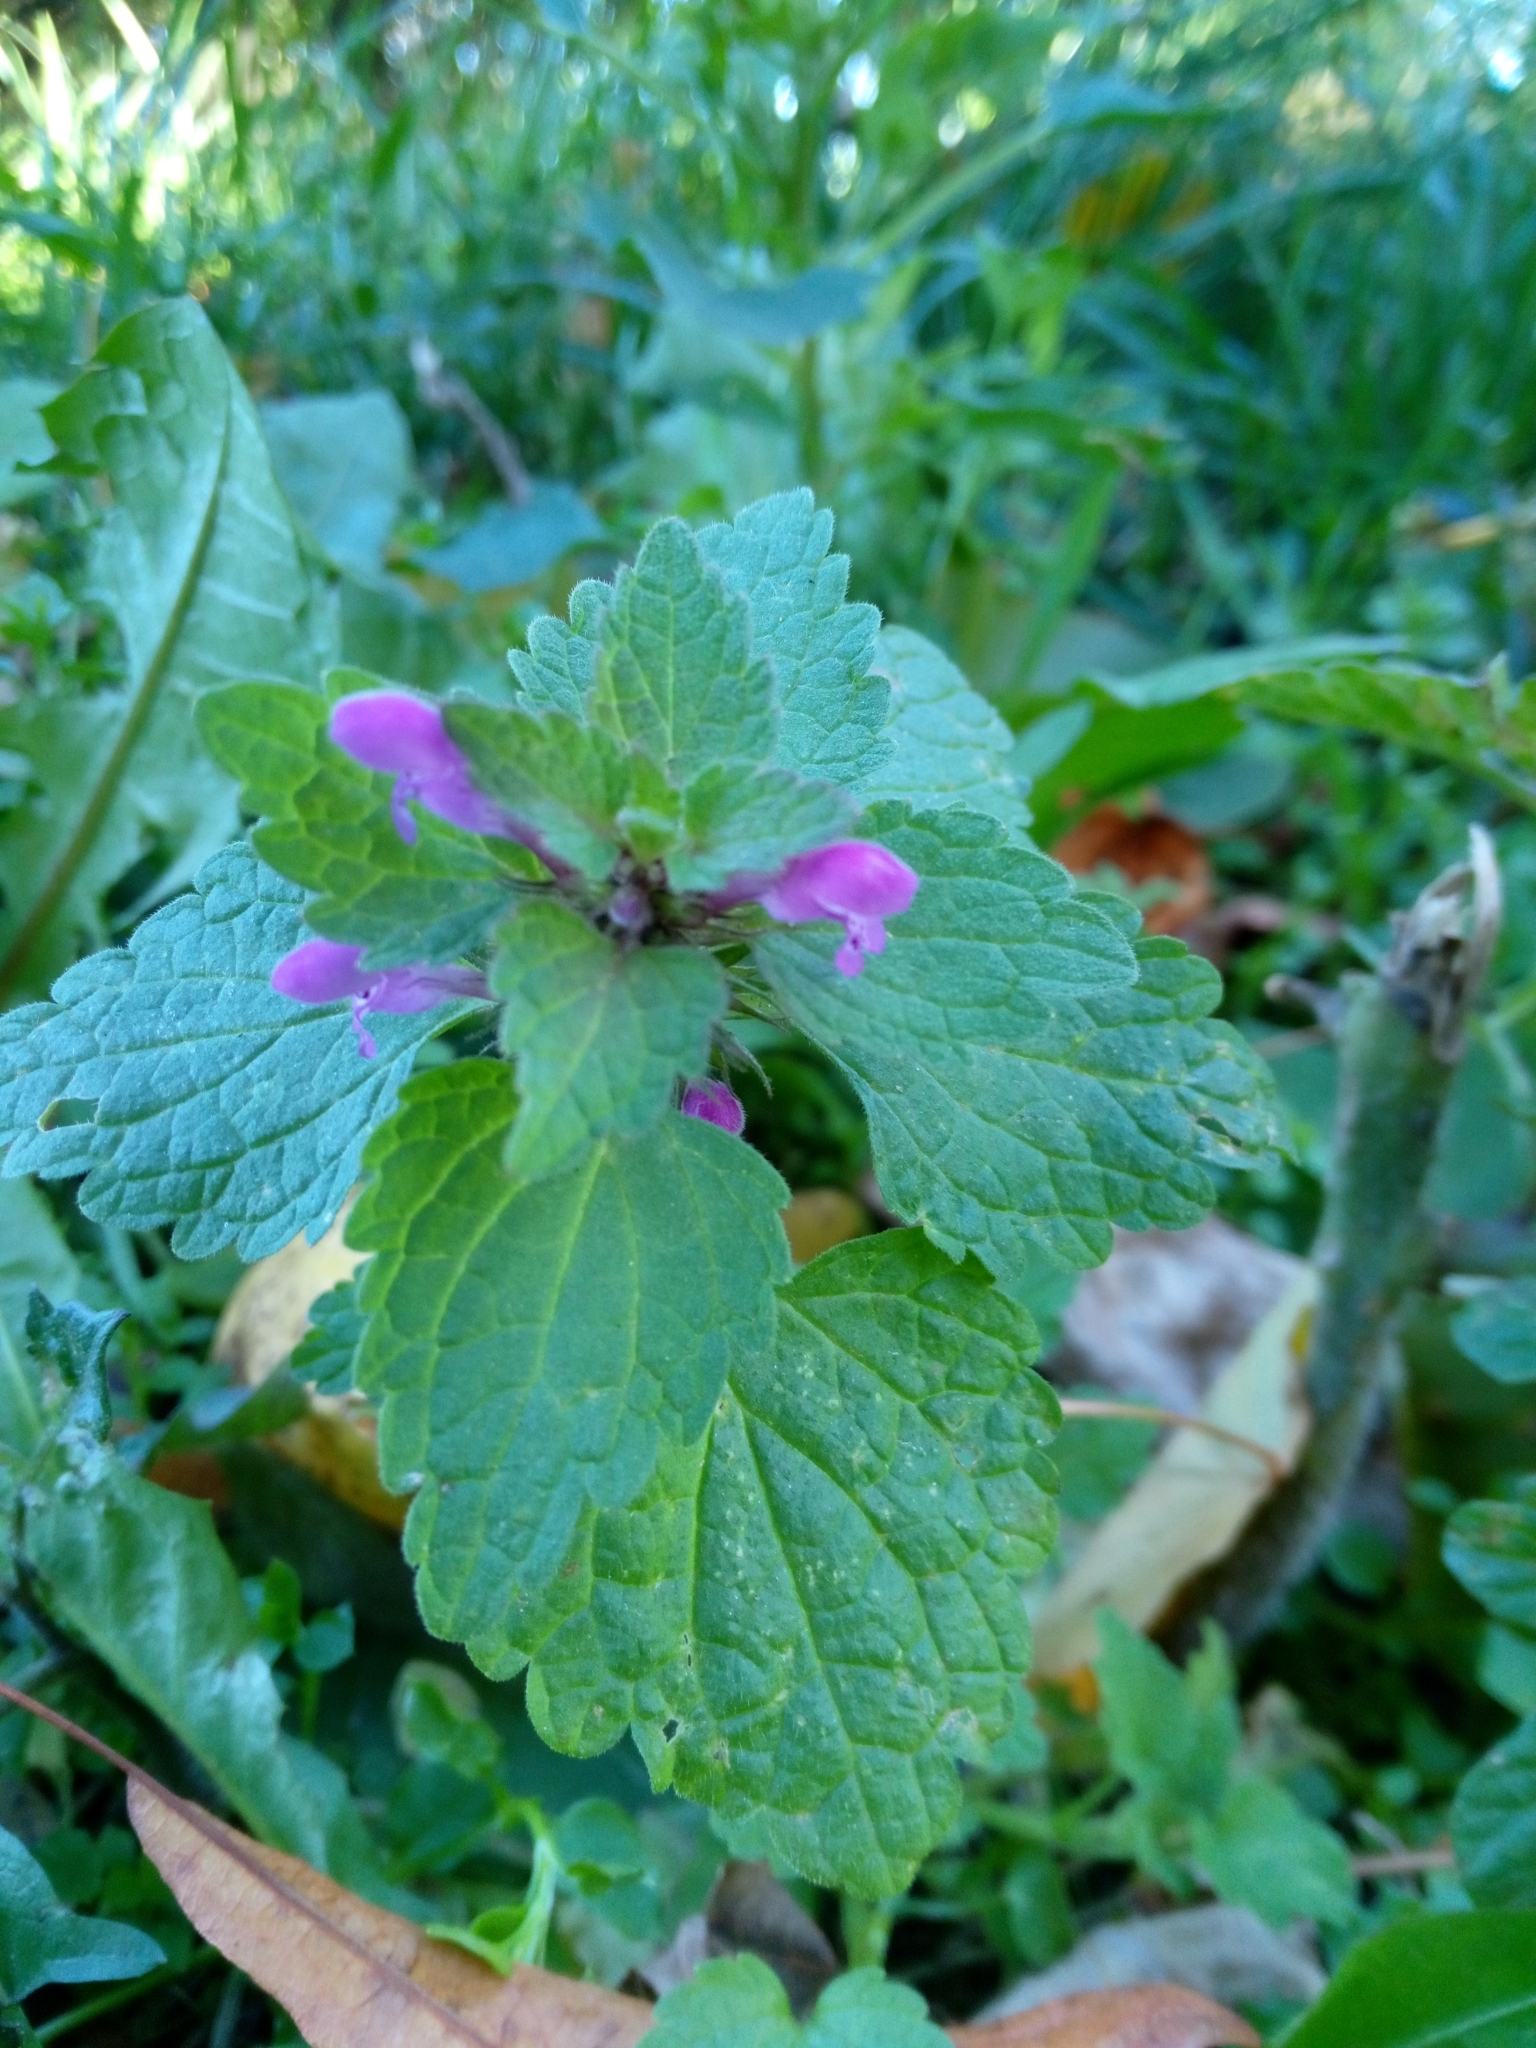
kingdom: Plantae
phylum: Tracheophyta
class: Magnoliopsida
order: Lamiales
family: Lamiaceae
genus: Lamium
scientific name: Lamium purpureum
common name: Red dead-nettle
